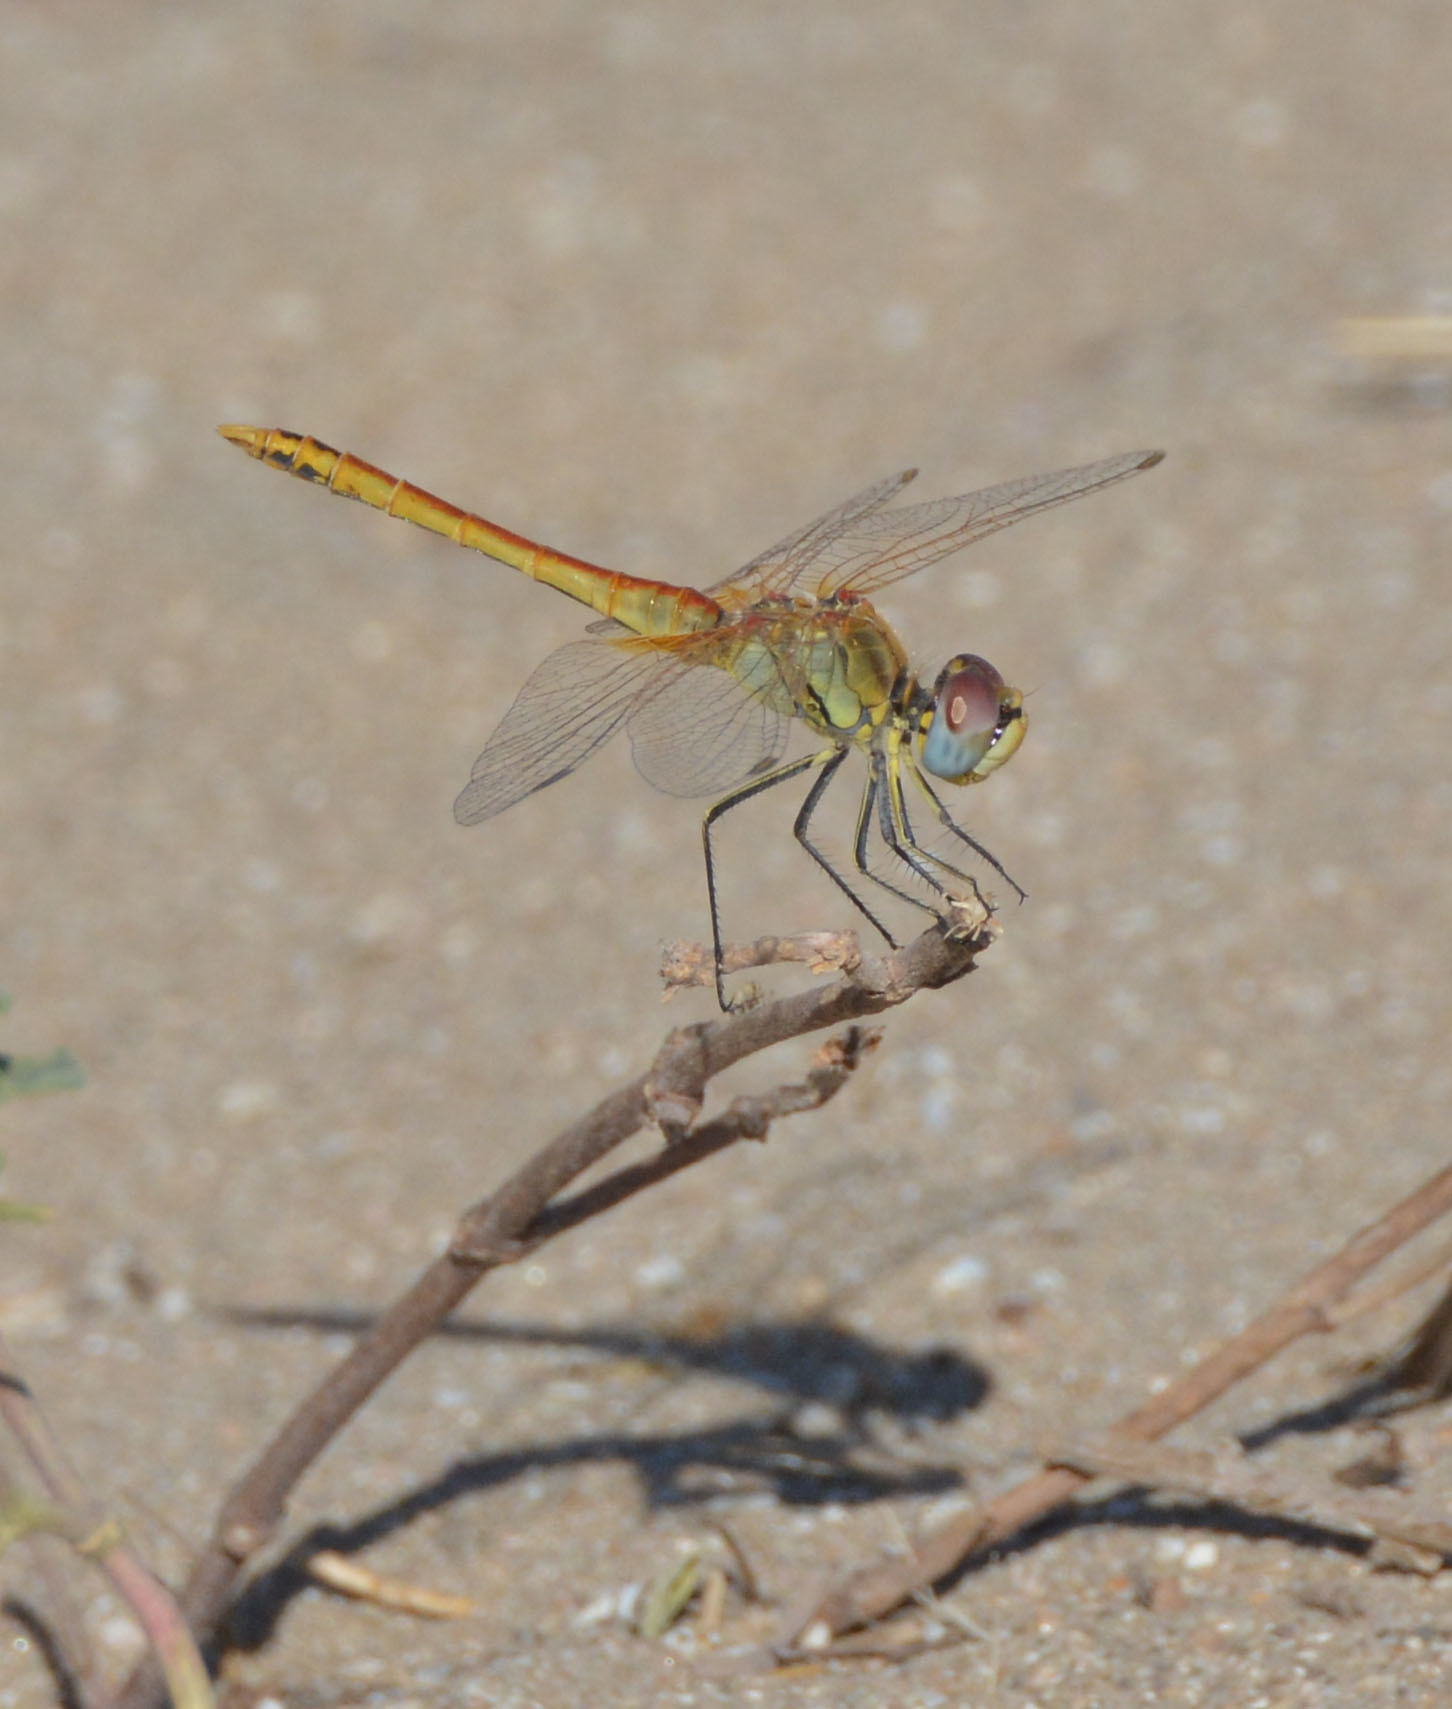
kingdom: Animalia
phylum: Arthropoda
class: Insecta
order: Odonata
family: Libellulidae
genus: Sympetrum
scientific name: Sympetrum fonscolombii
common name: Red-veined darter
